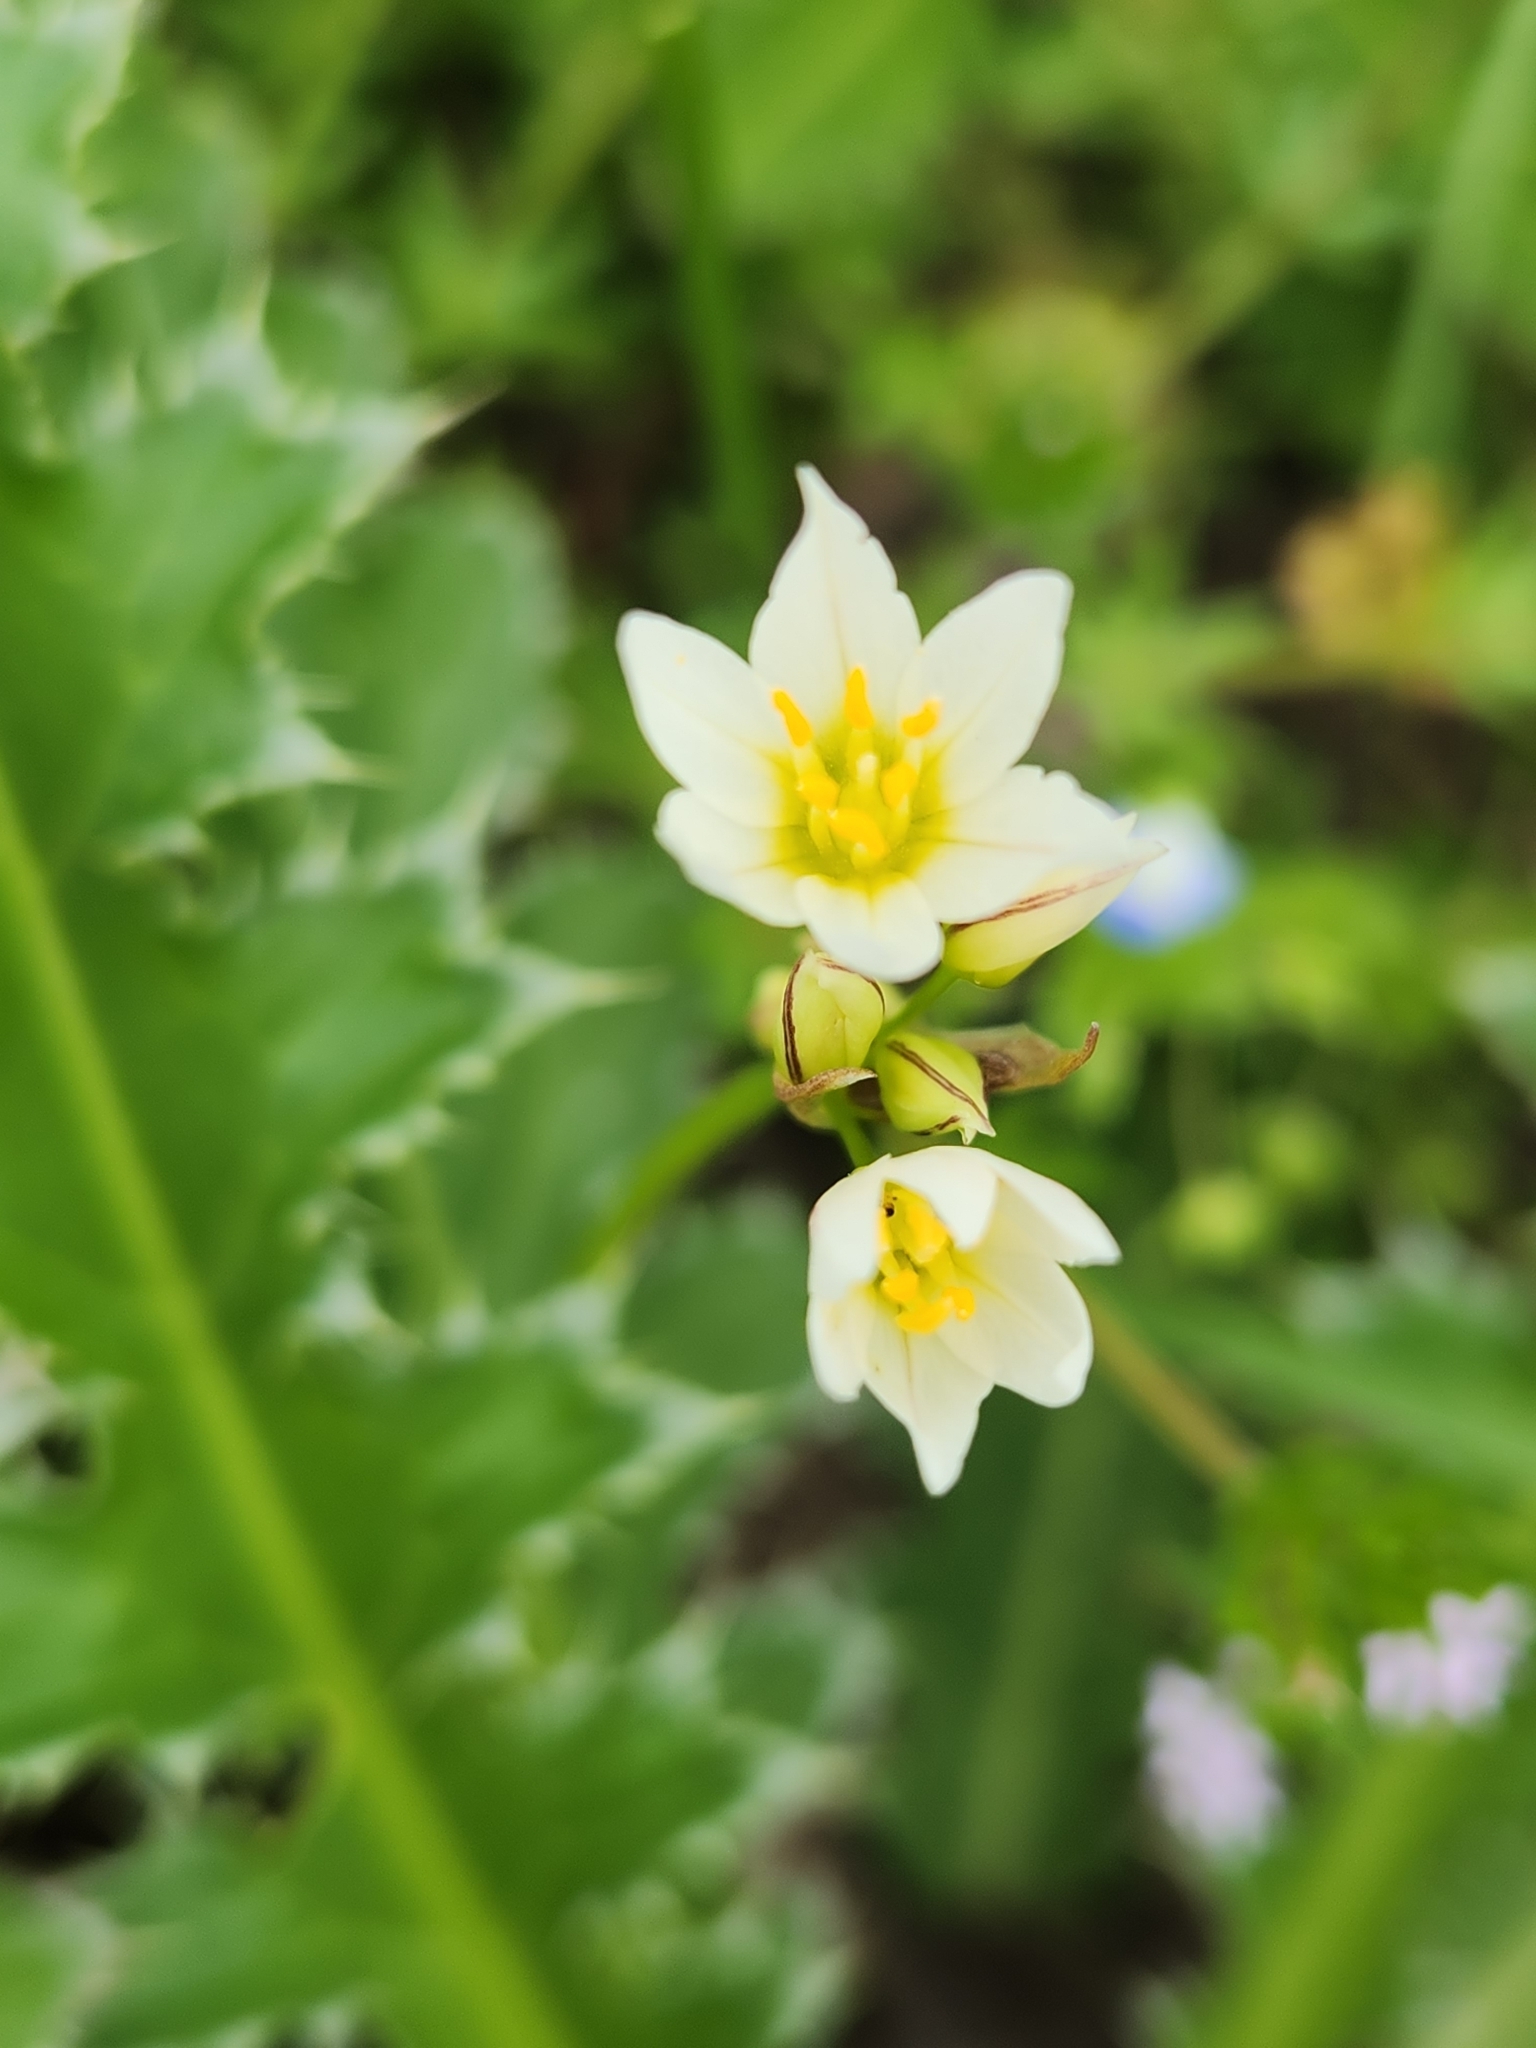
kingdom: Plantae
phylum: Tracheophyta
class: Liliopsida
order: Asparagales
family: Amaryllidaceae
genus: Nothoscordum
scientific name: Nothoscordum bivalve
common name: Crow-poison
